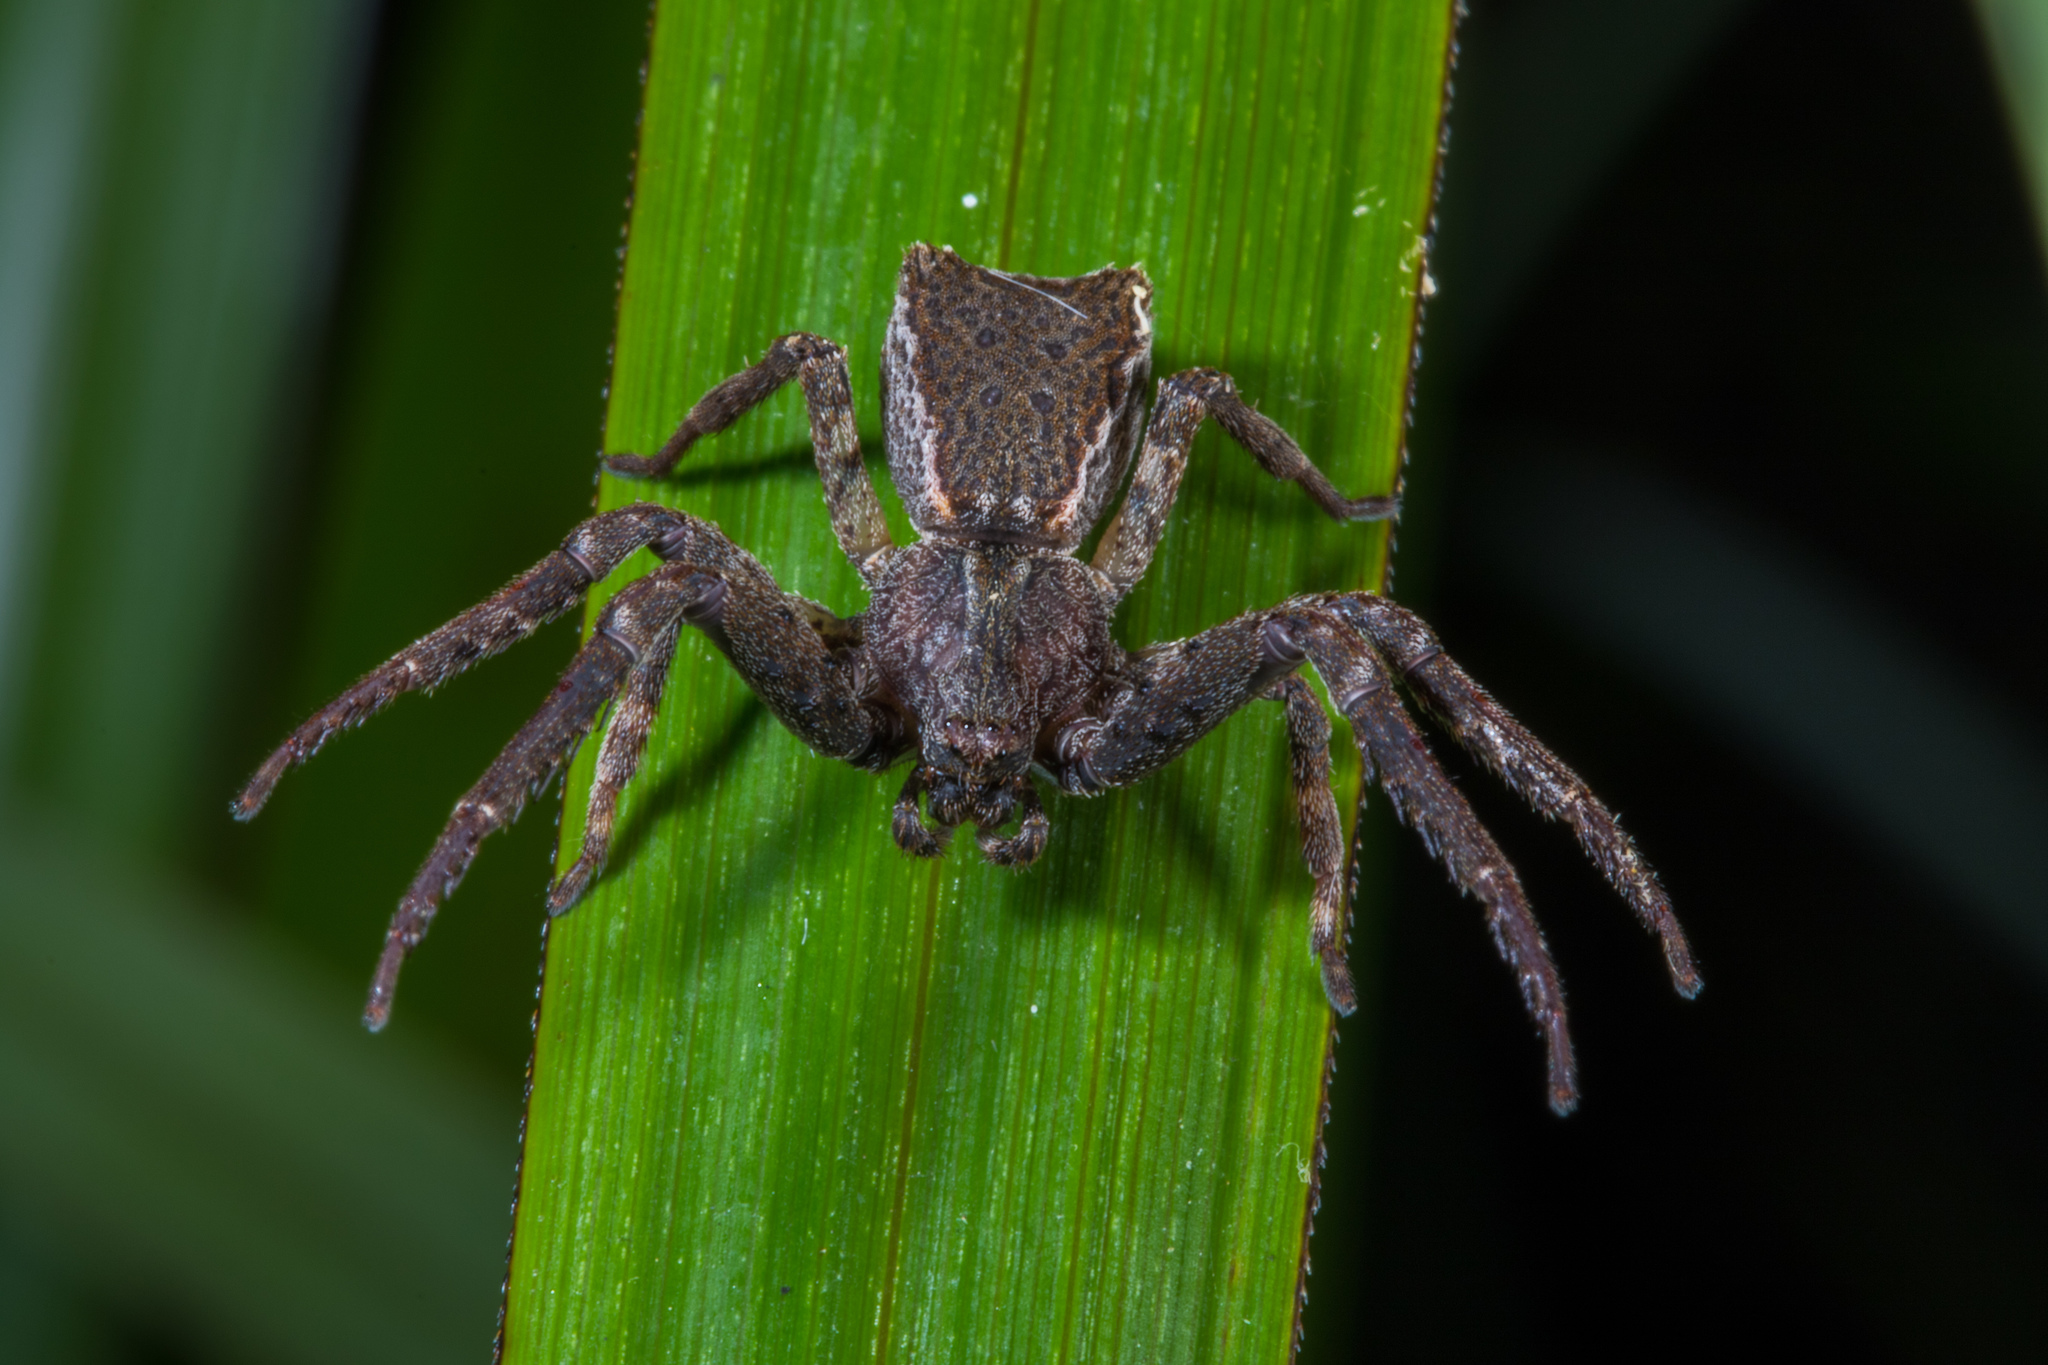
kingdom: Animalia
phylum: Arthropoda
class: Arachnida
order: Araneae
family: Thomisidae
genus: Sidymella
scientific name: Sidymella angularis
